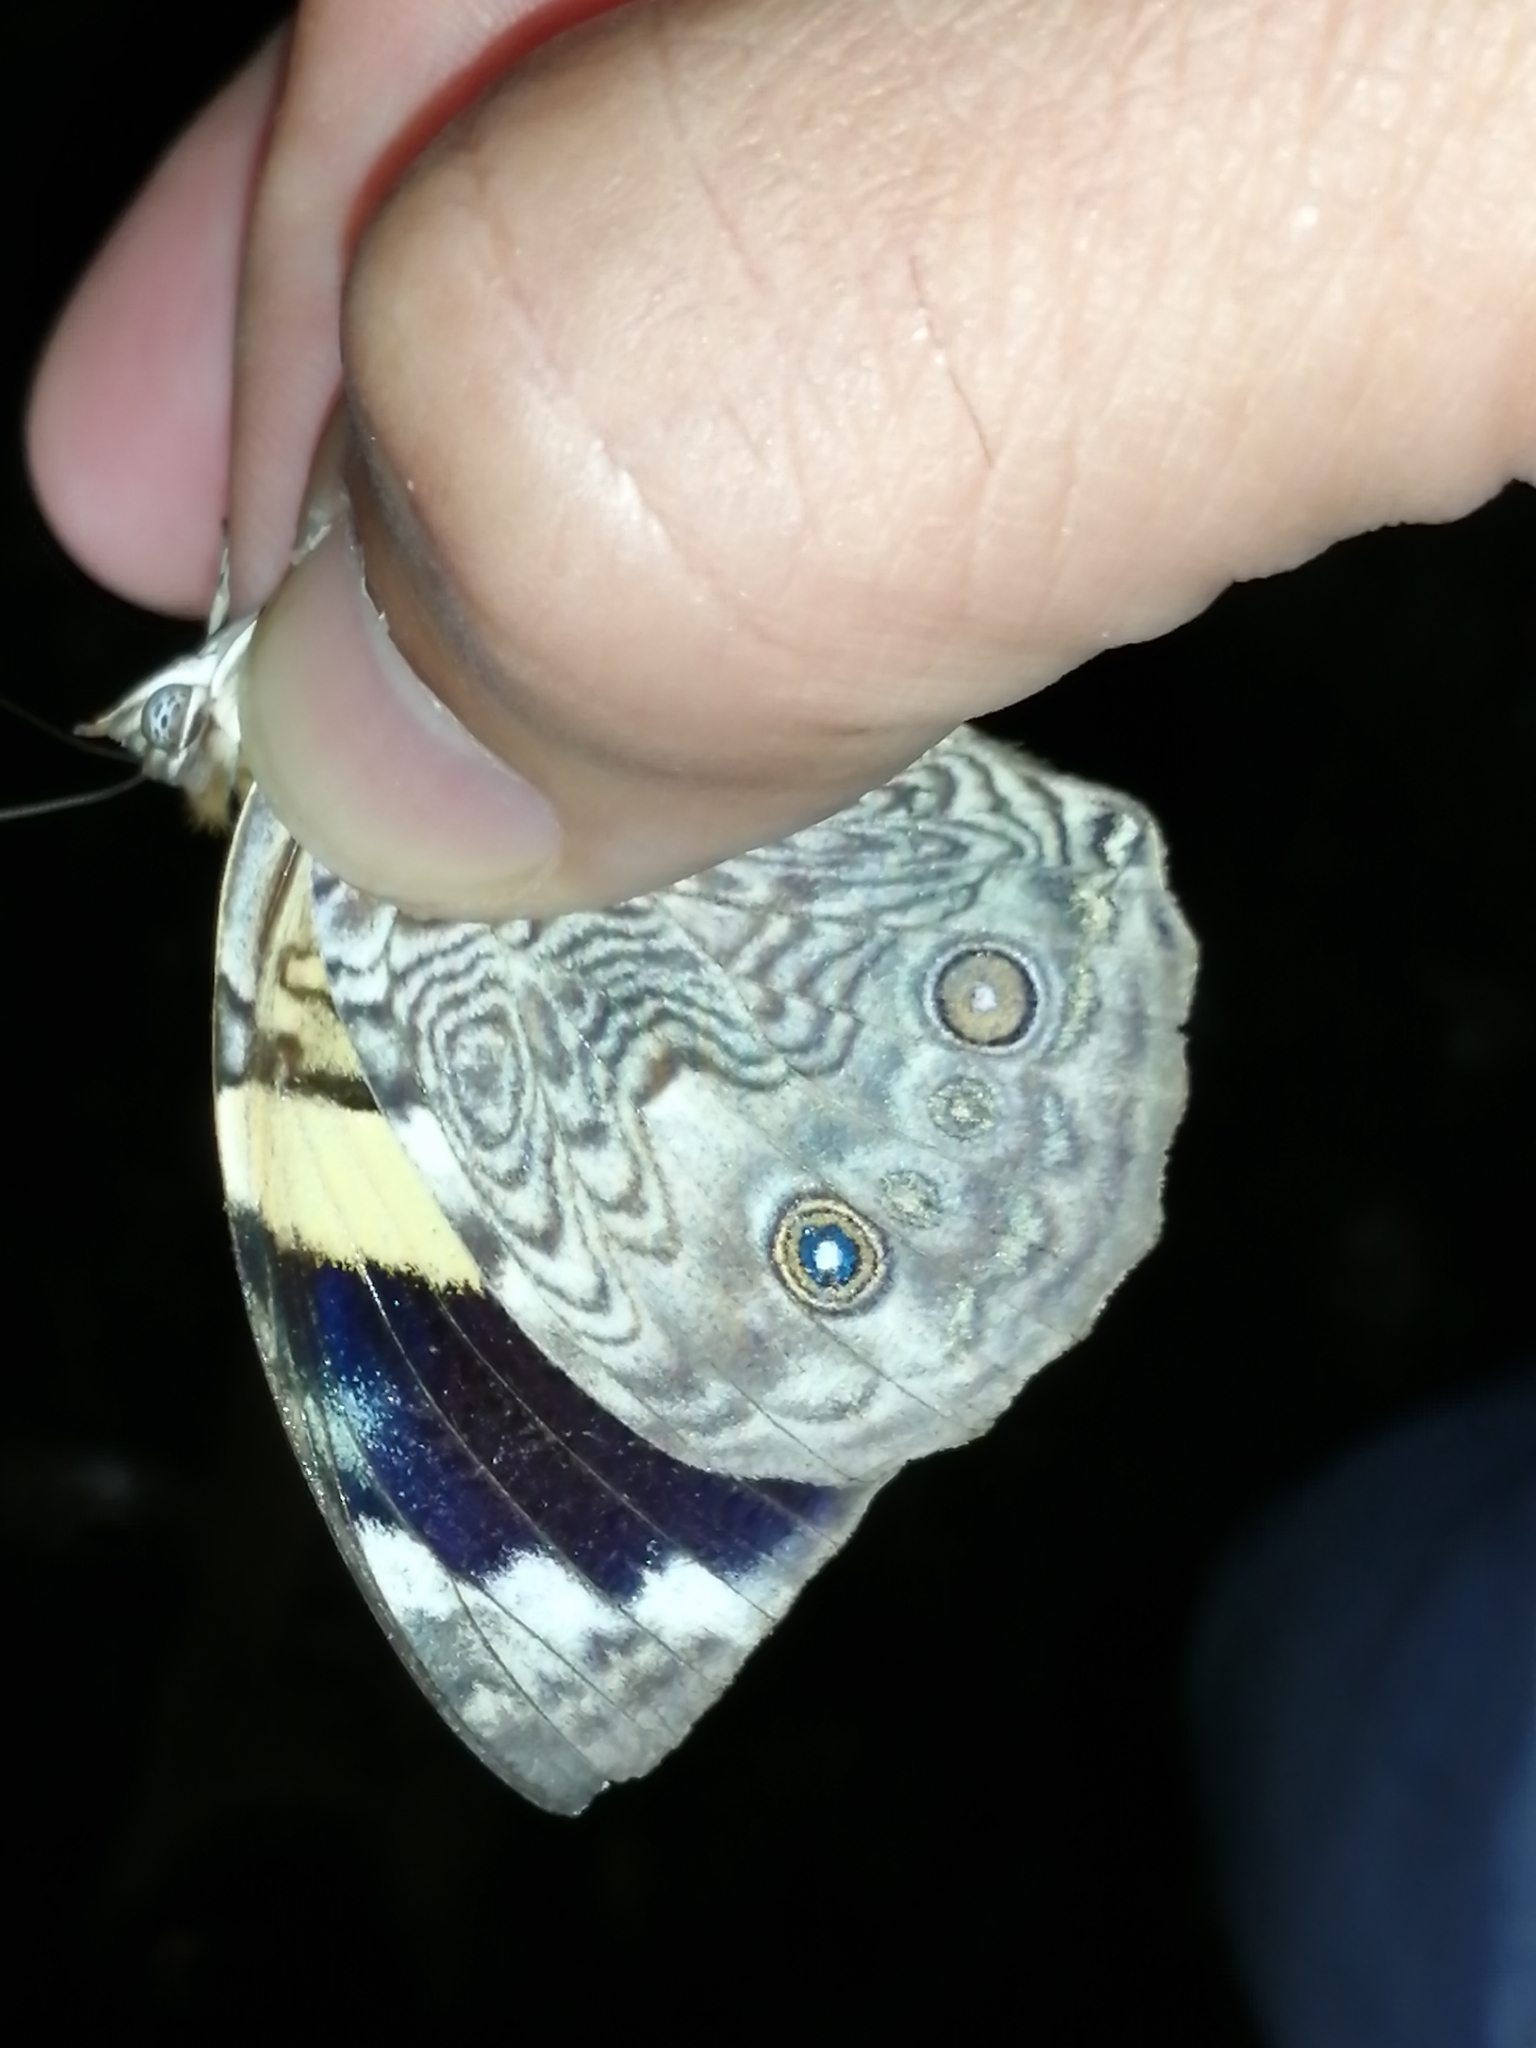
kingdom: Animalia
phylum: Arthropoda
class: Insecta
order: Lepidoptera
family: Nymphalidae
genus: Smyrna
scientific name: Smyrna karwinskii
